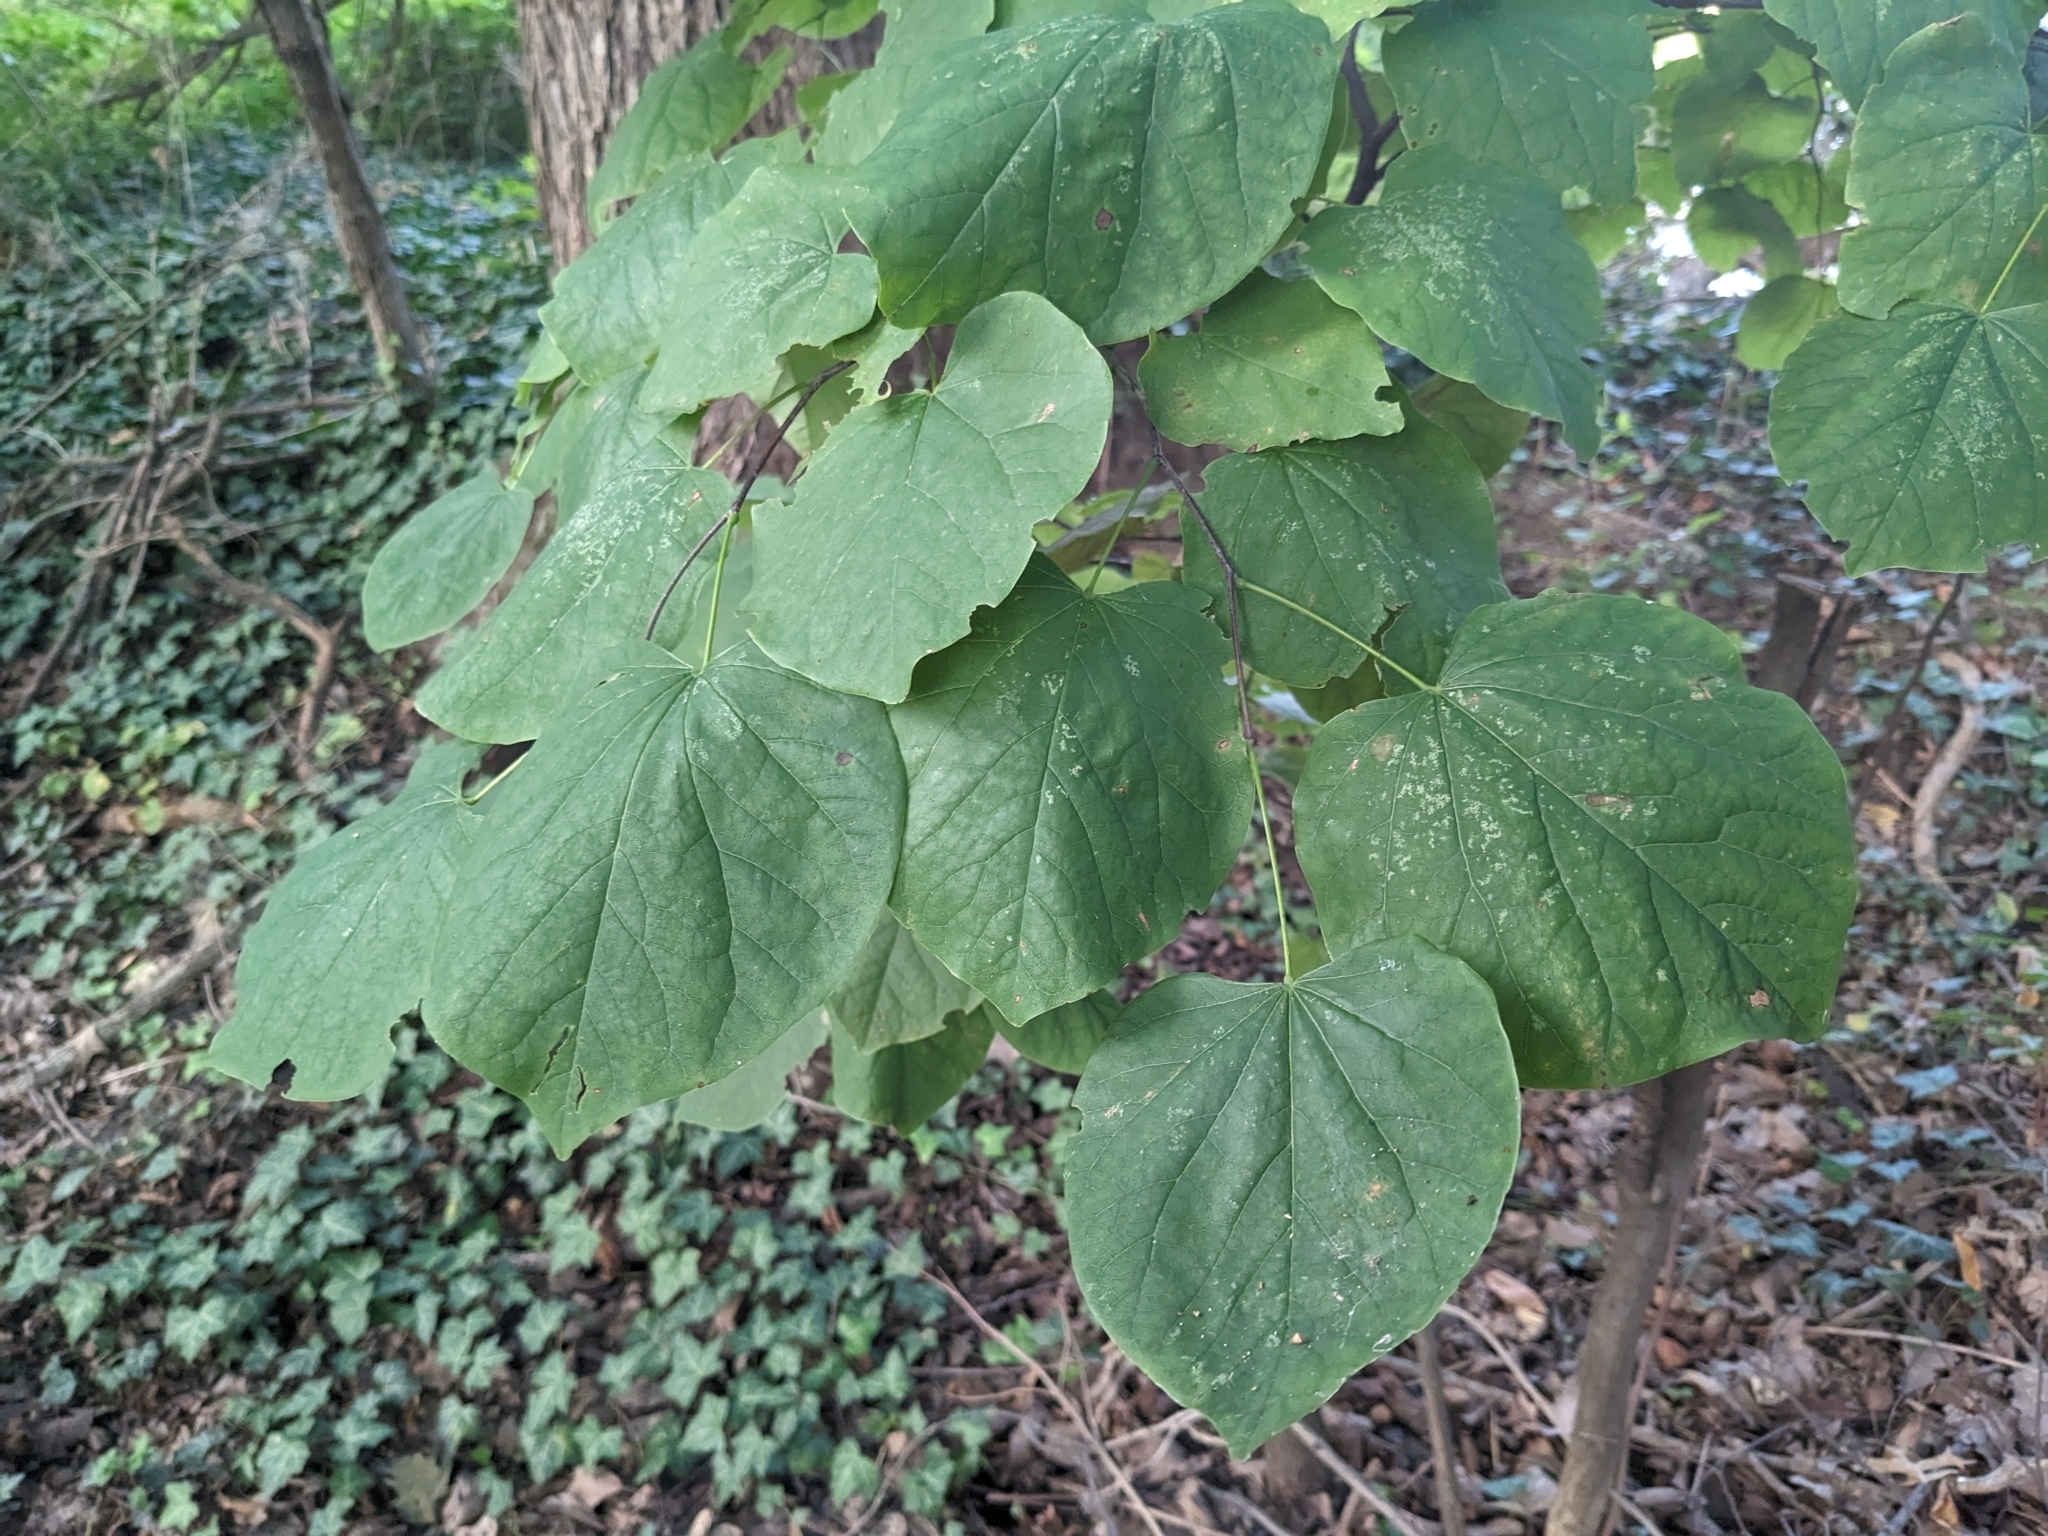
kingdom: Plantae
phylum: Tracheophyta
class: Magnoliopsida
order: Fabales
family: Fabaceae
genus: Cercis
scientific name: Cercis canadensis
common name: Eastern redbud
